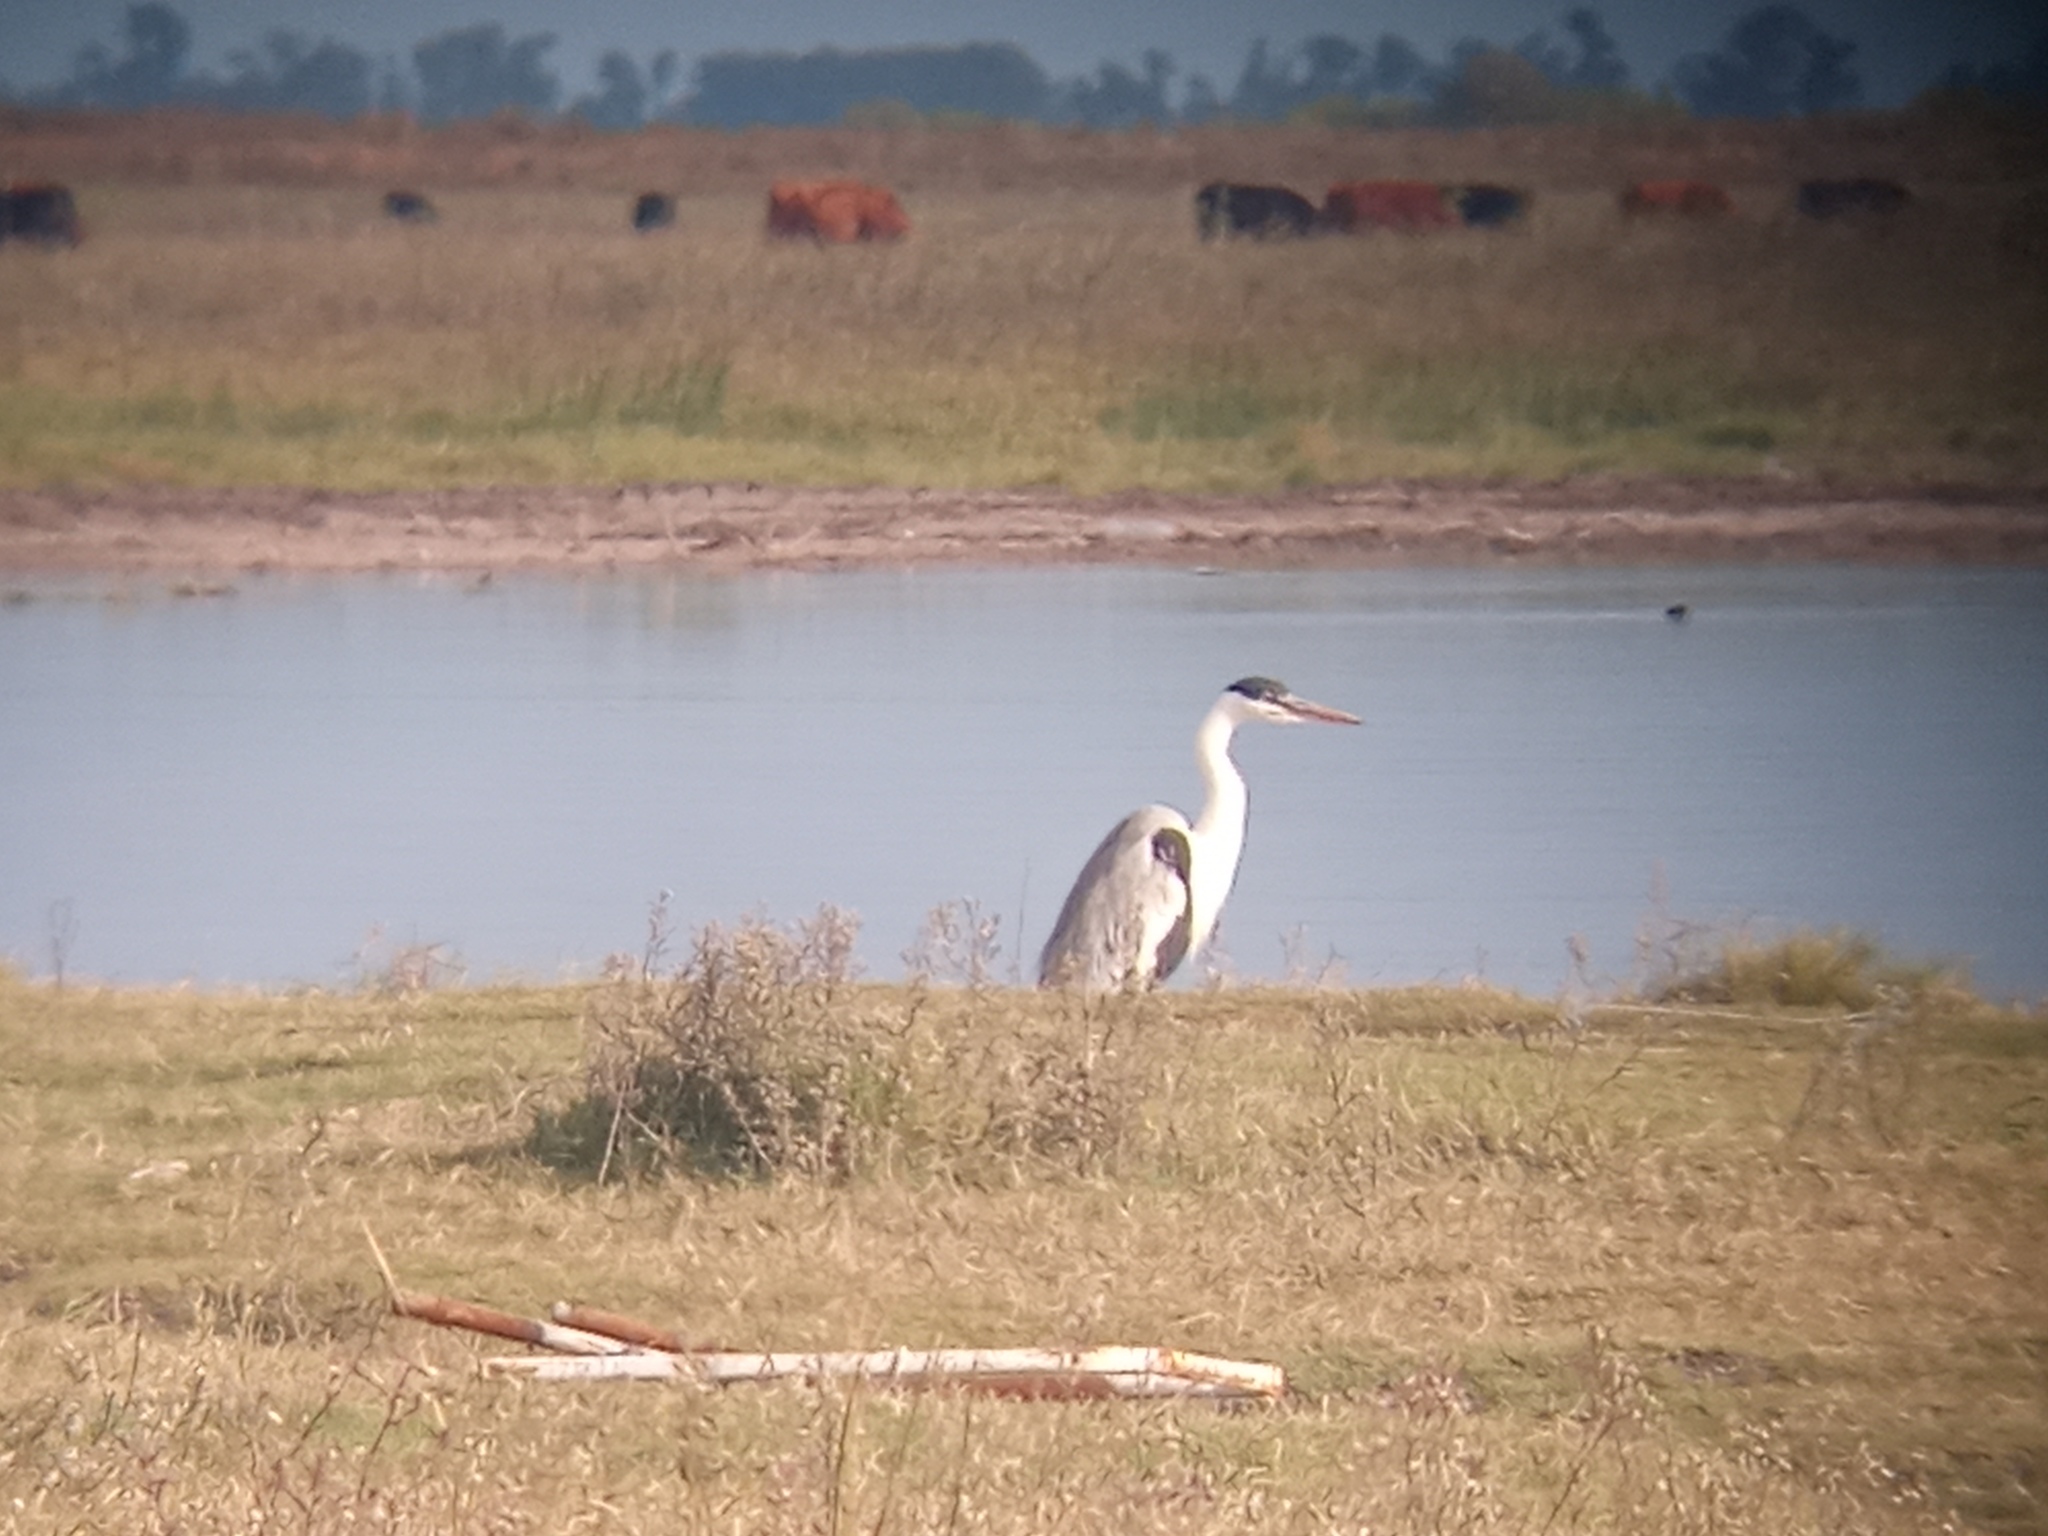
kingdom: Animalia
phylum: Chordata
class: Aves
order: Pelecaniformes
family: Ardeidae
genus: Ardea
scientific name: Ardea cocoi
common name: Cocoi heron
